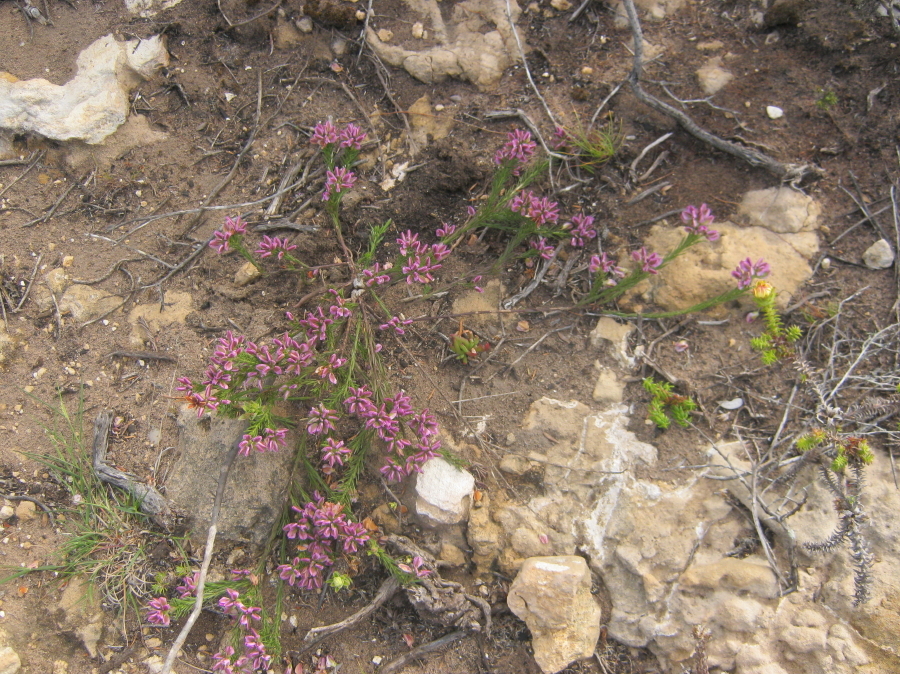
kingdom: Plantae
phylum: Tracheophyta
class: Magnoliopsida
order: Fabales
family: Polygalaceae
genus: Polygala
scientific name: Polygala ericifolia
